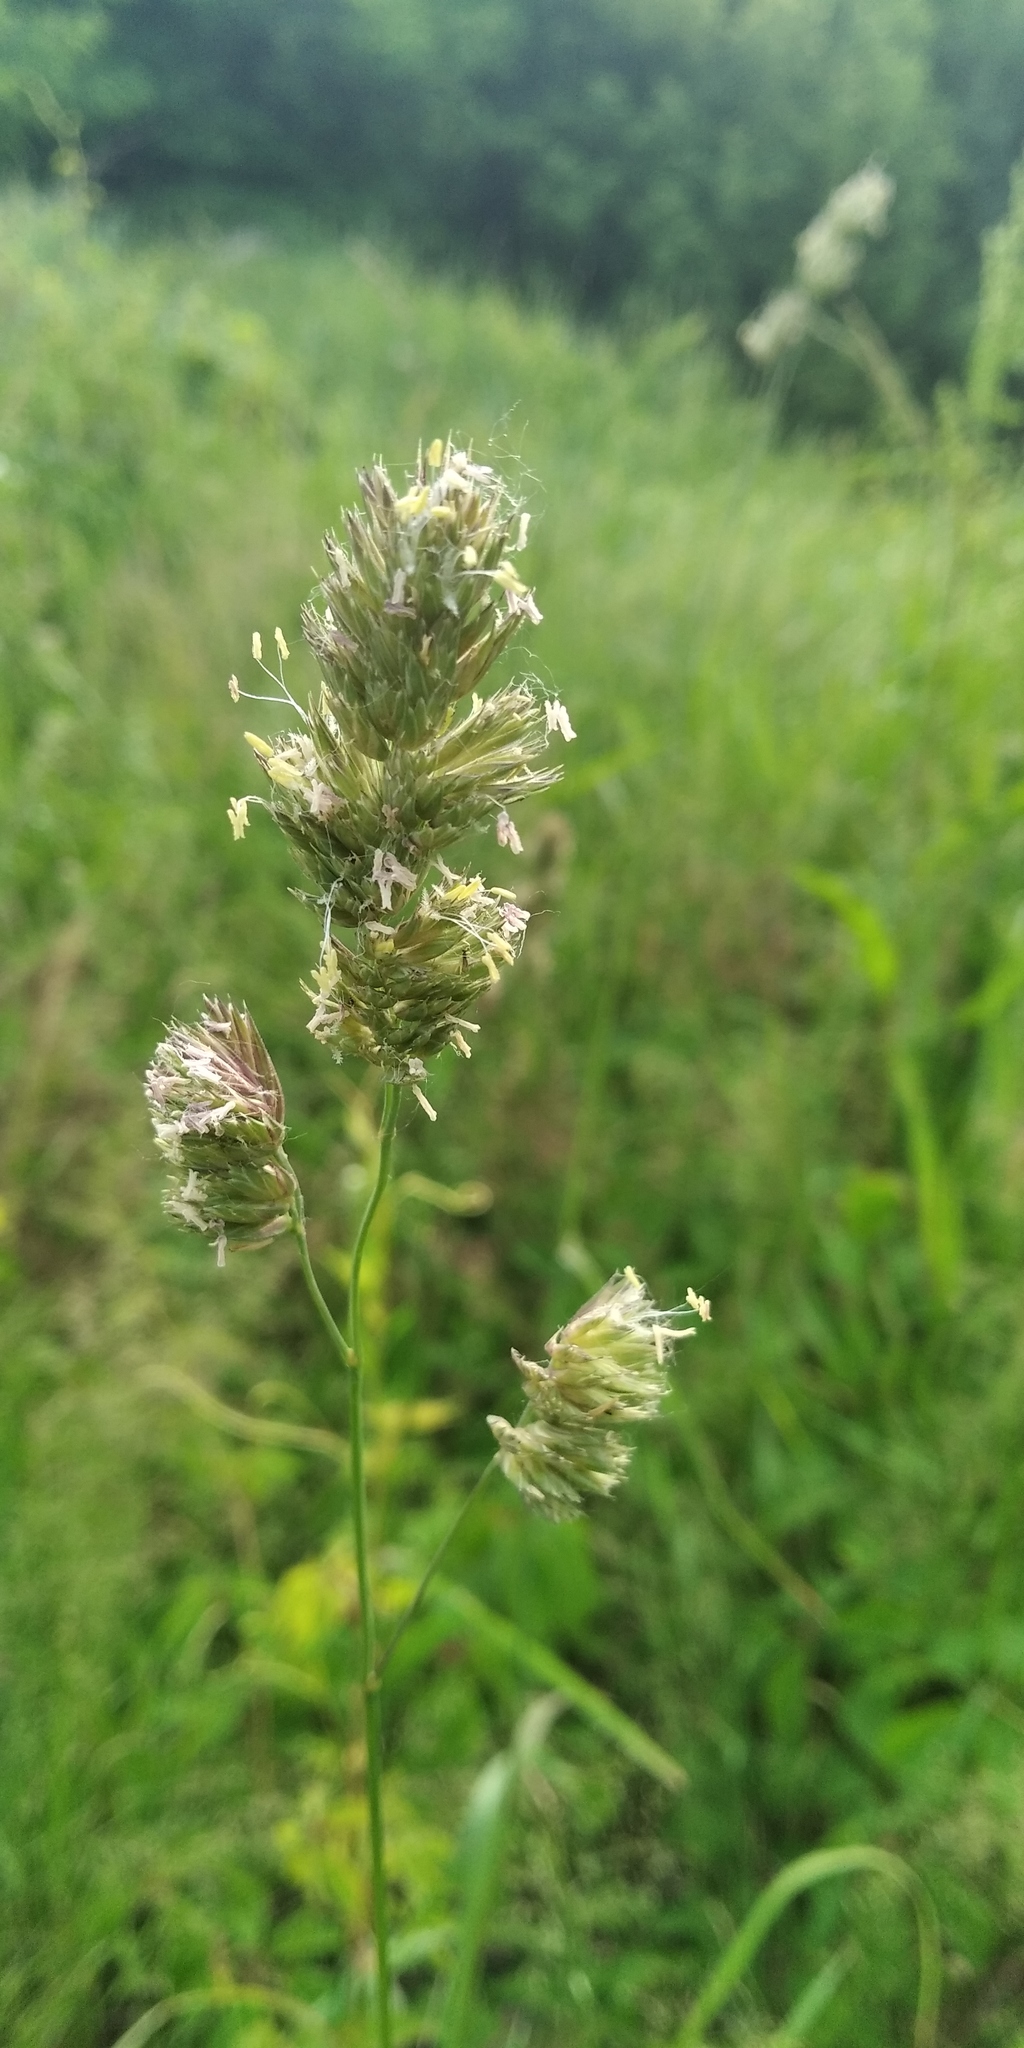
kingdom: Plantae
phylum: Tracheophyta
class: Liliopsida
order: Poales
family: Poaceae
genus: Dactylis
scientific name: Dactylis glomerata
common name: Orchardgrass
